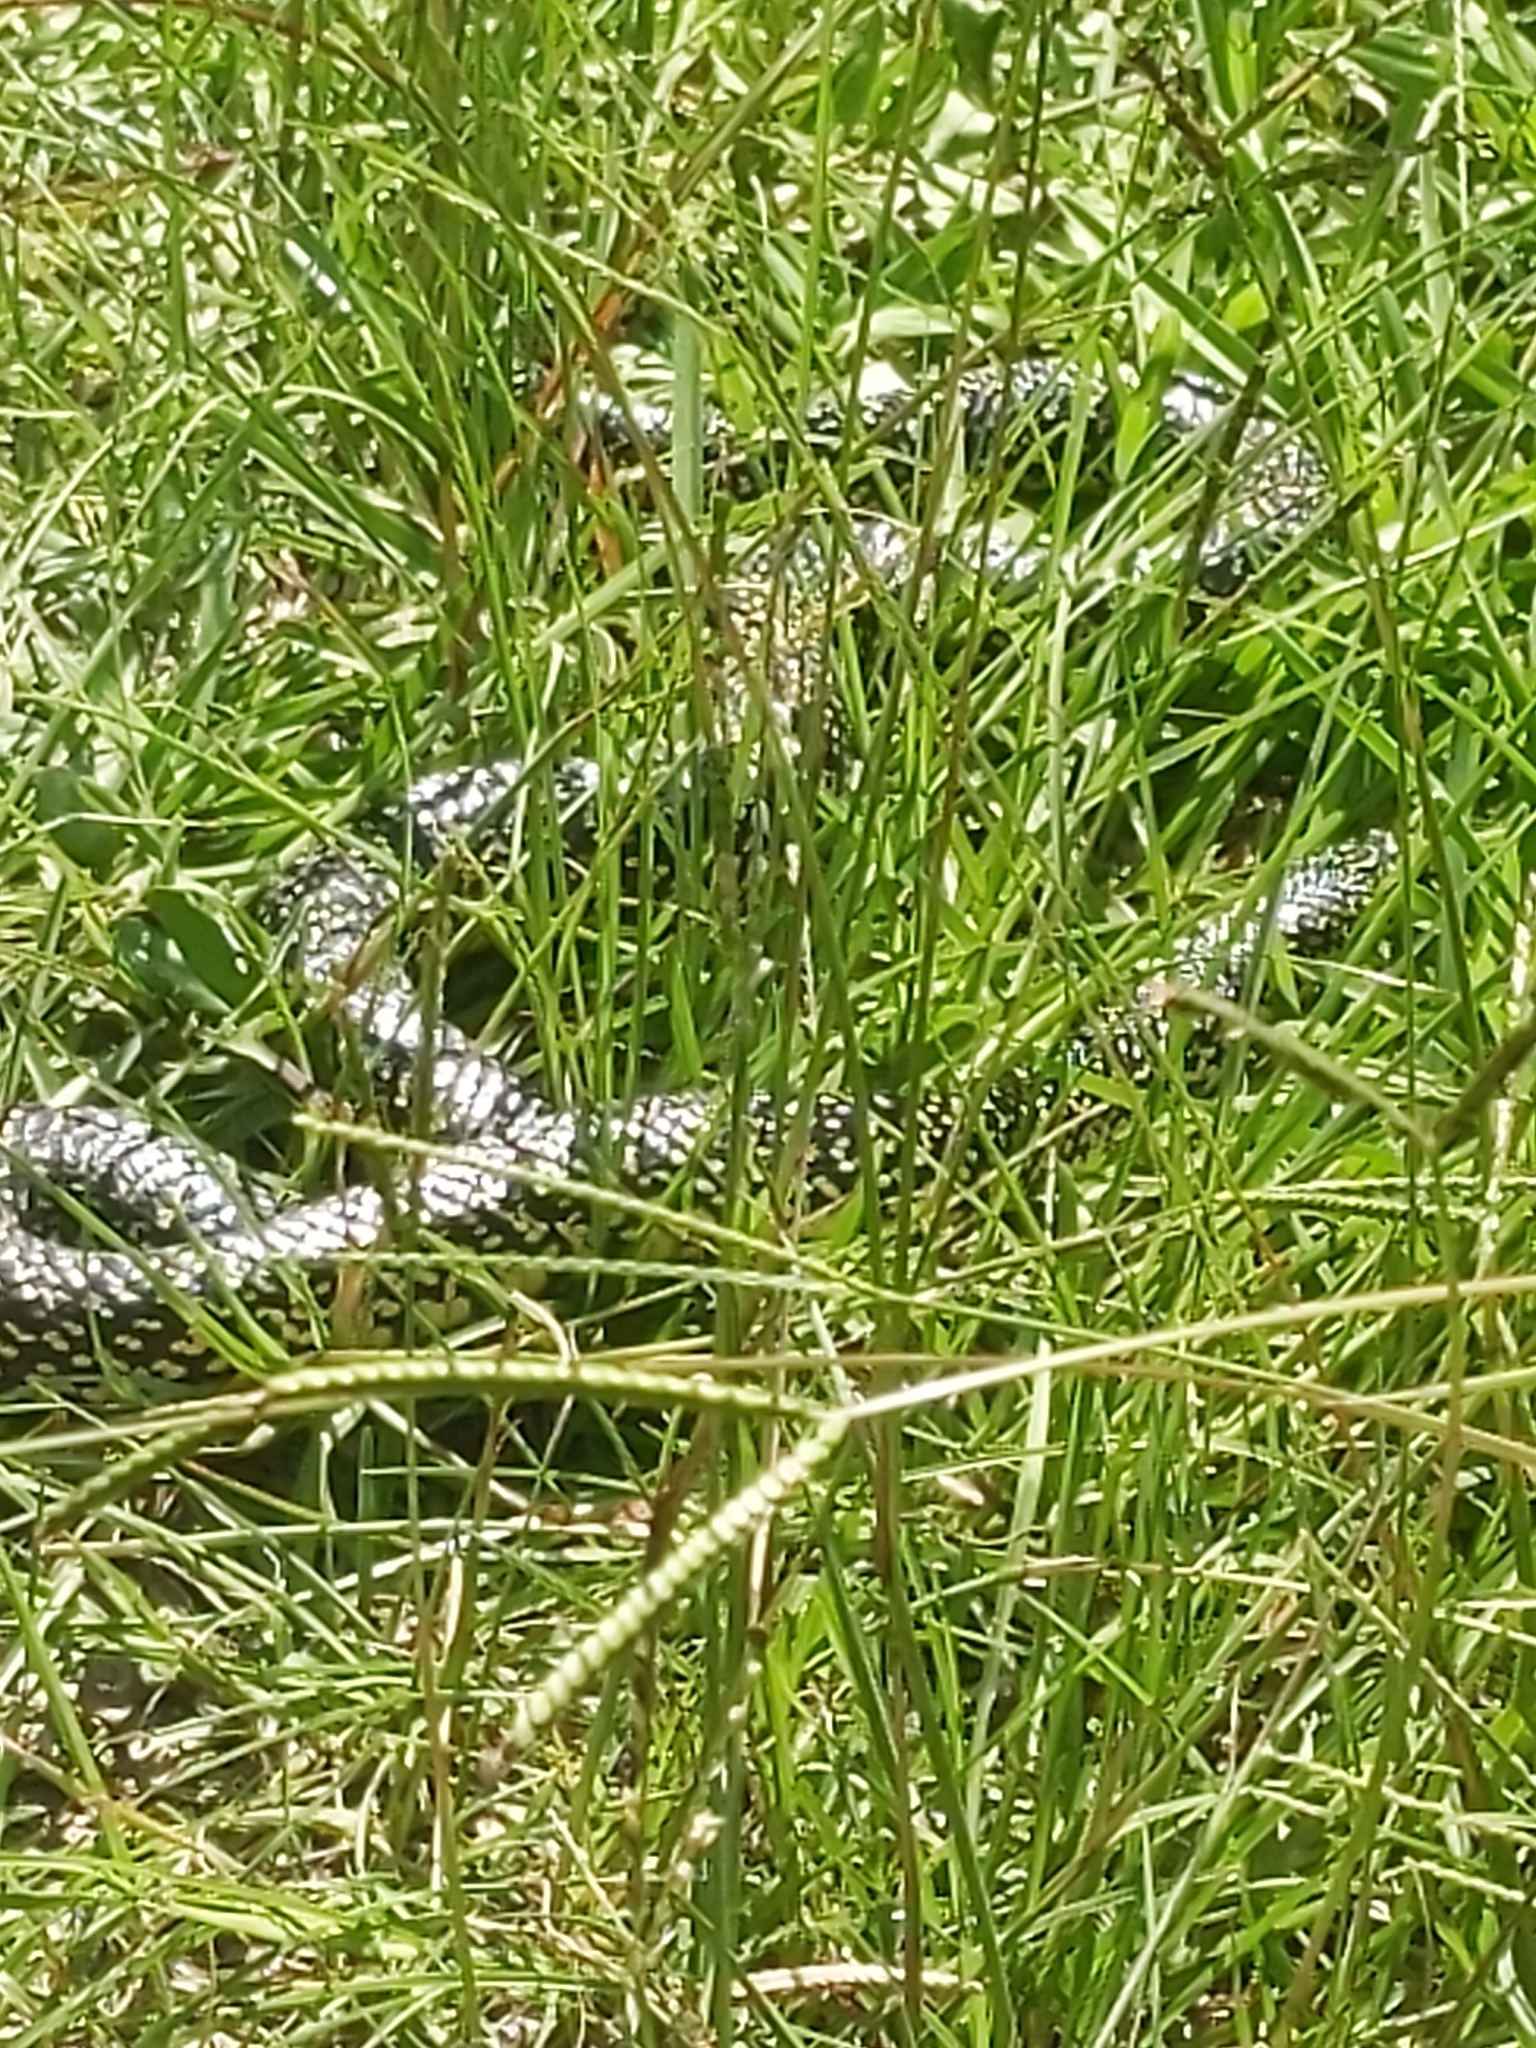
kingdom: Animalia
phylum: Chordata
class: Squamata
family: Colubridae
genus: Lampropeltis
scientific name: Lampropeltis holbrooki
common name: Speckled kingsnake
